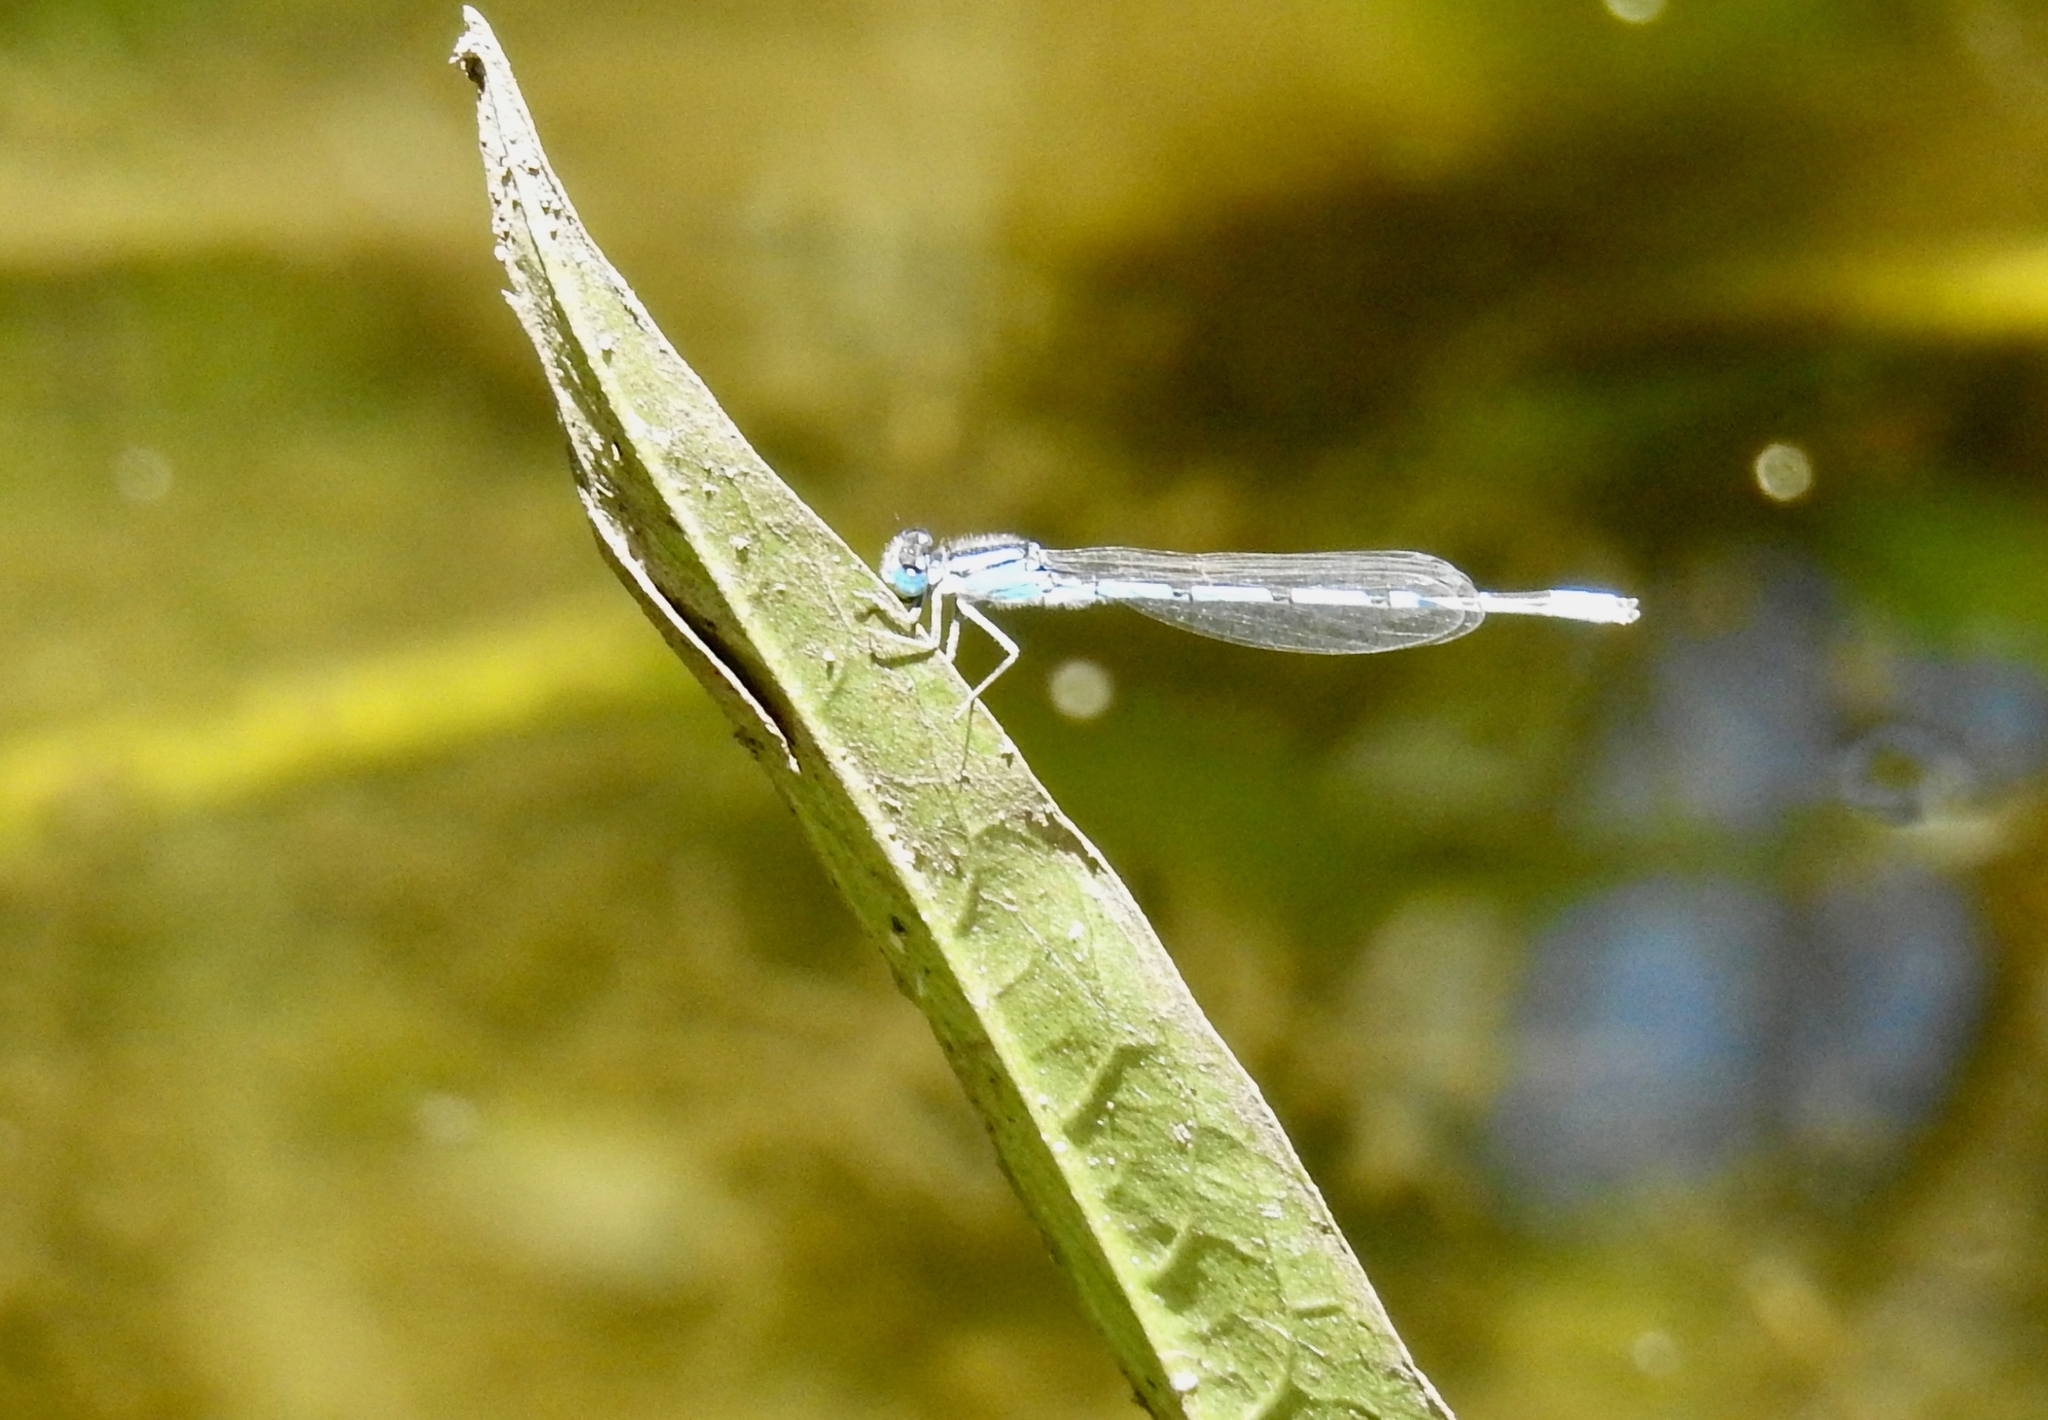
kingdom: Animalia
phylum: Arthropoda
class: Insecta
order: Odonata
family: Coenagrionidae
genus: Enallagma
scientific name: Enallagma civile
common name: Damselfly
